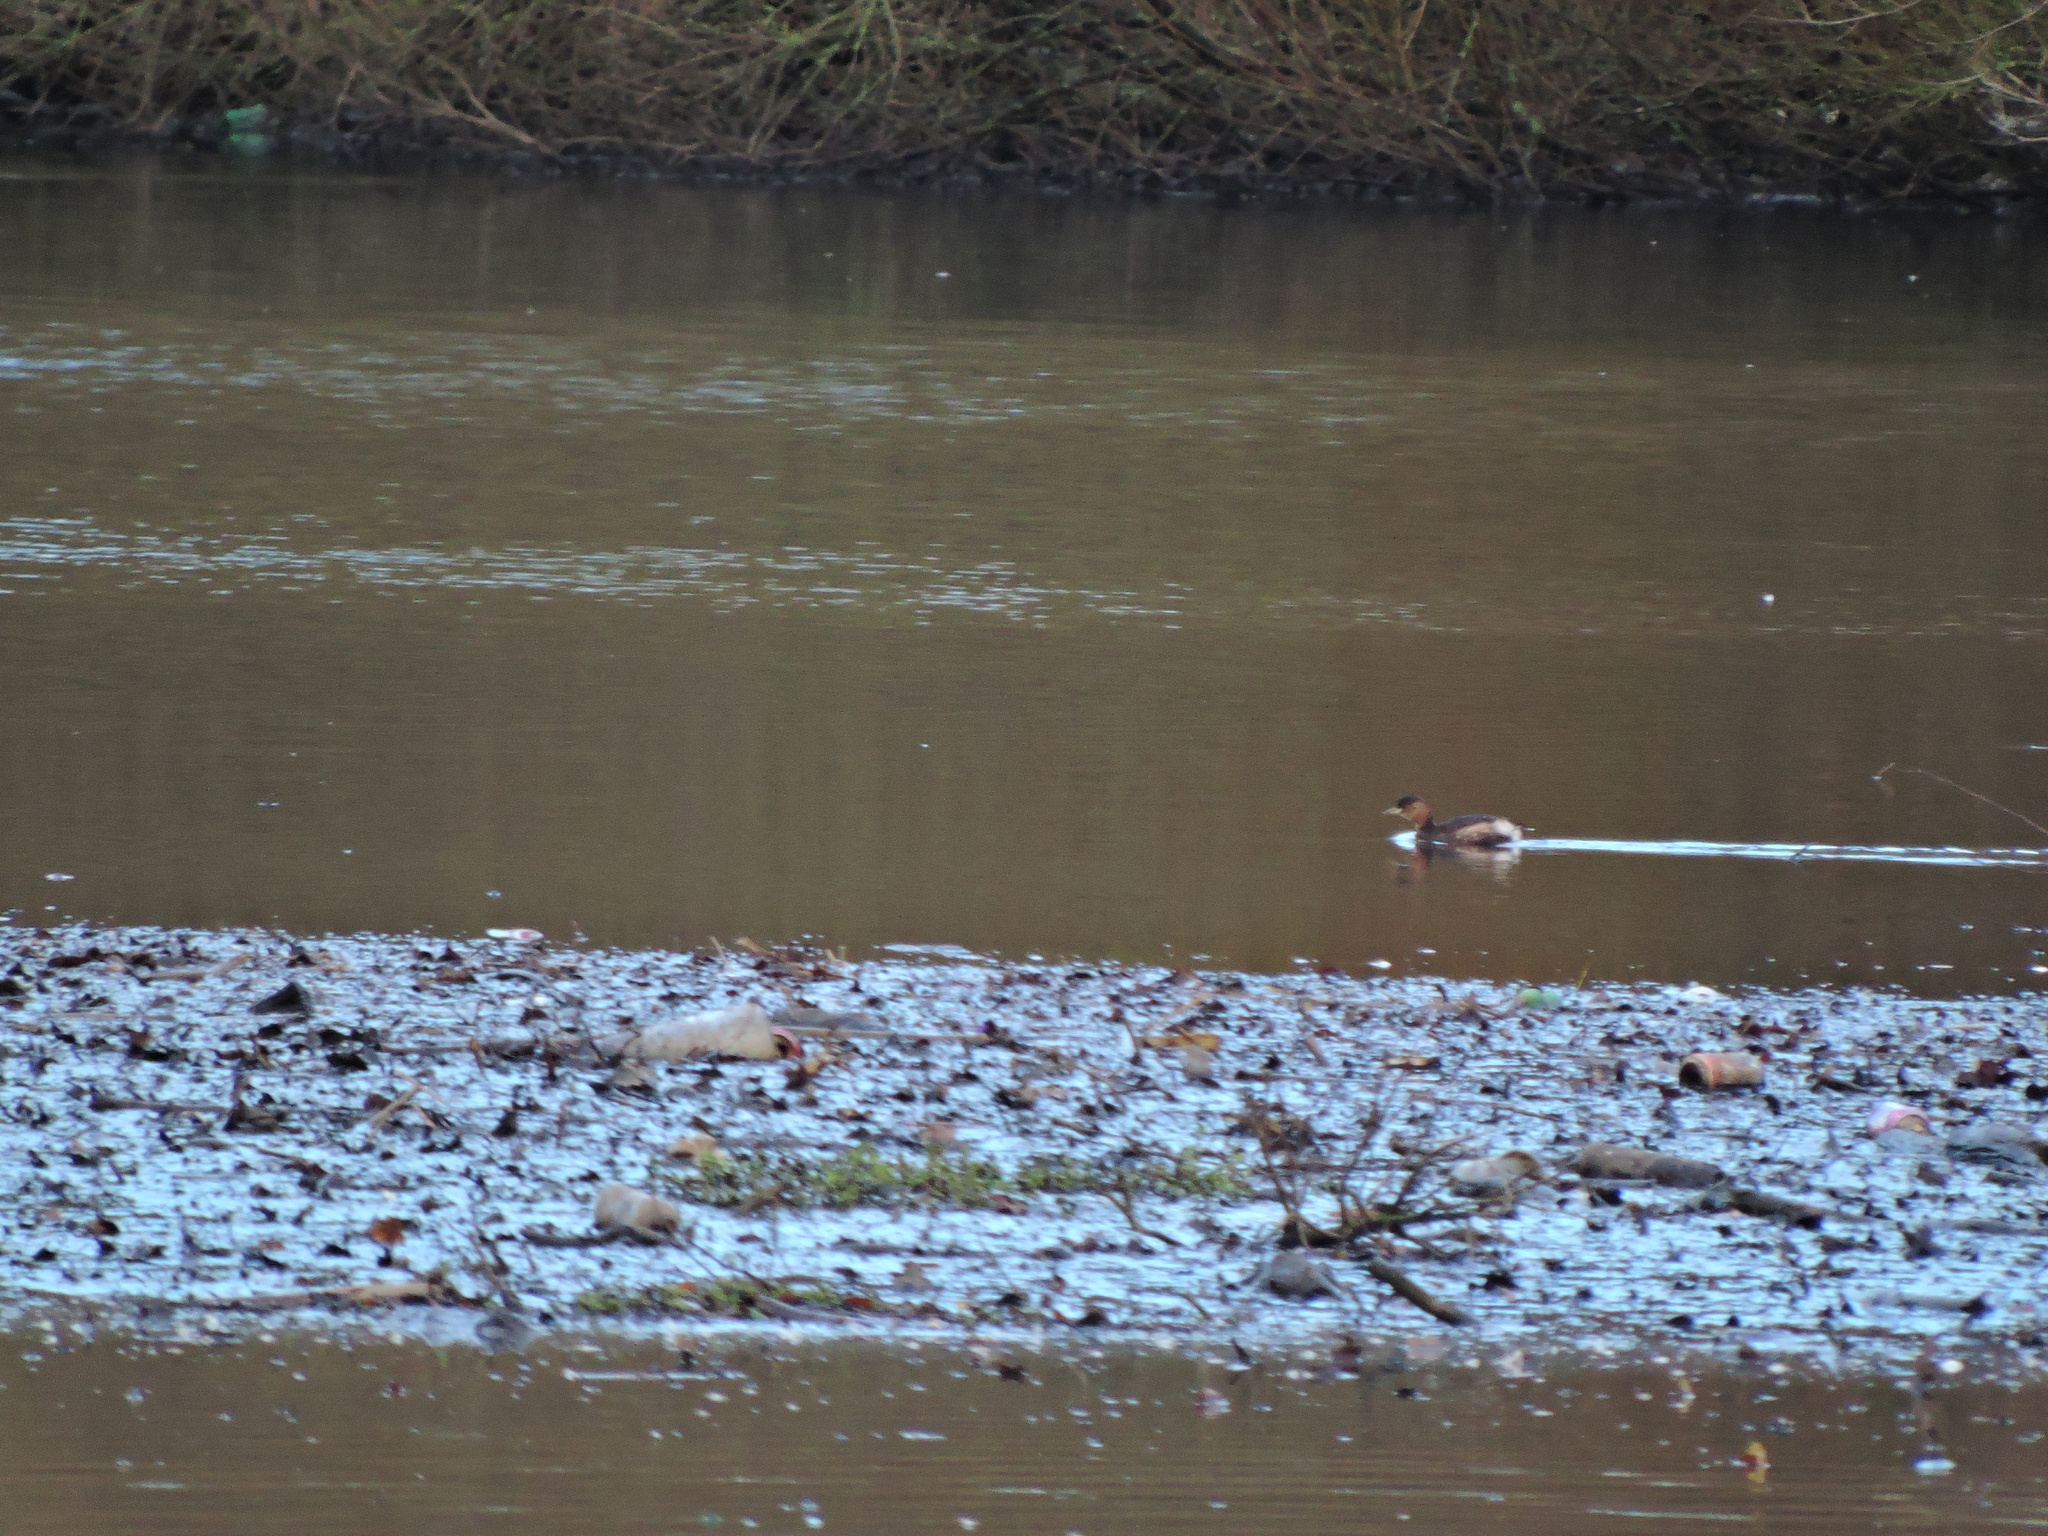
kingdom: Animalia
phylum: Chordata
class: Aves
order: Podicipediformes
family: Podicipedidae
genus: Tachybaptus
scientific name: Tachybaptus ruficollis
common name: Little grebe
